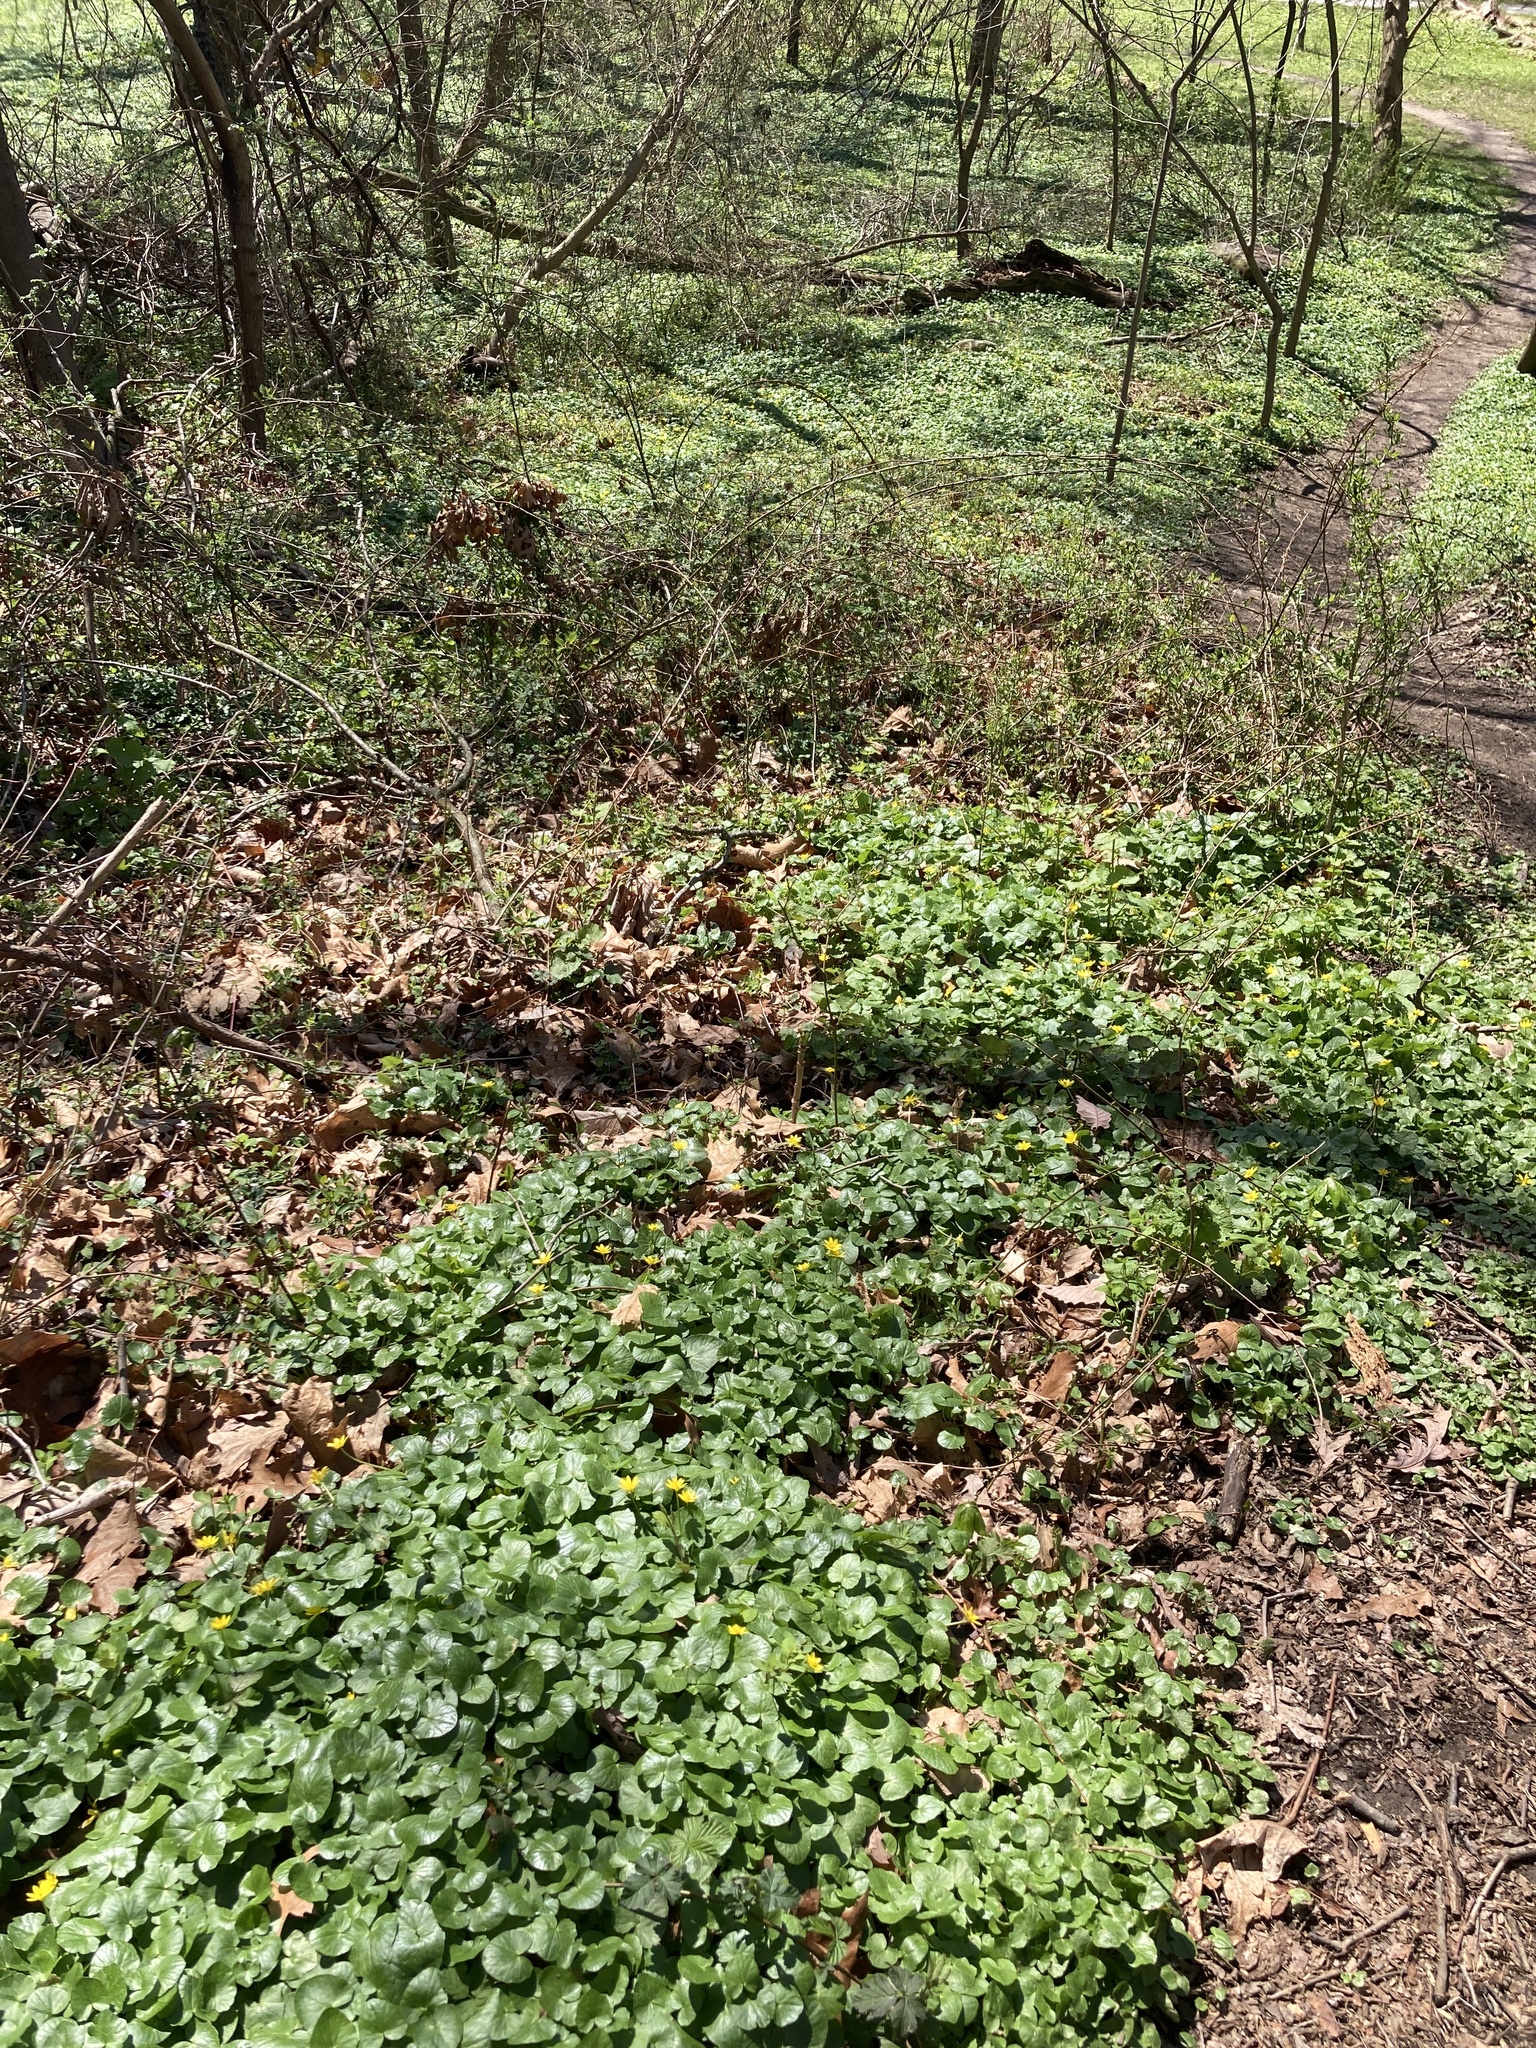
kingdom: Plantae
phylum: Tracheophyta
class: Magnoliopsida
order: Ranunculales
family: Ranunculaceae
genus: Ficaria
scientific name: Ficaria verna
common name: Lesser celandine
